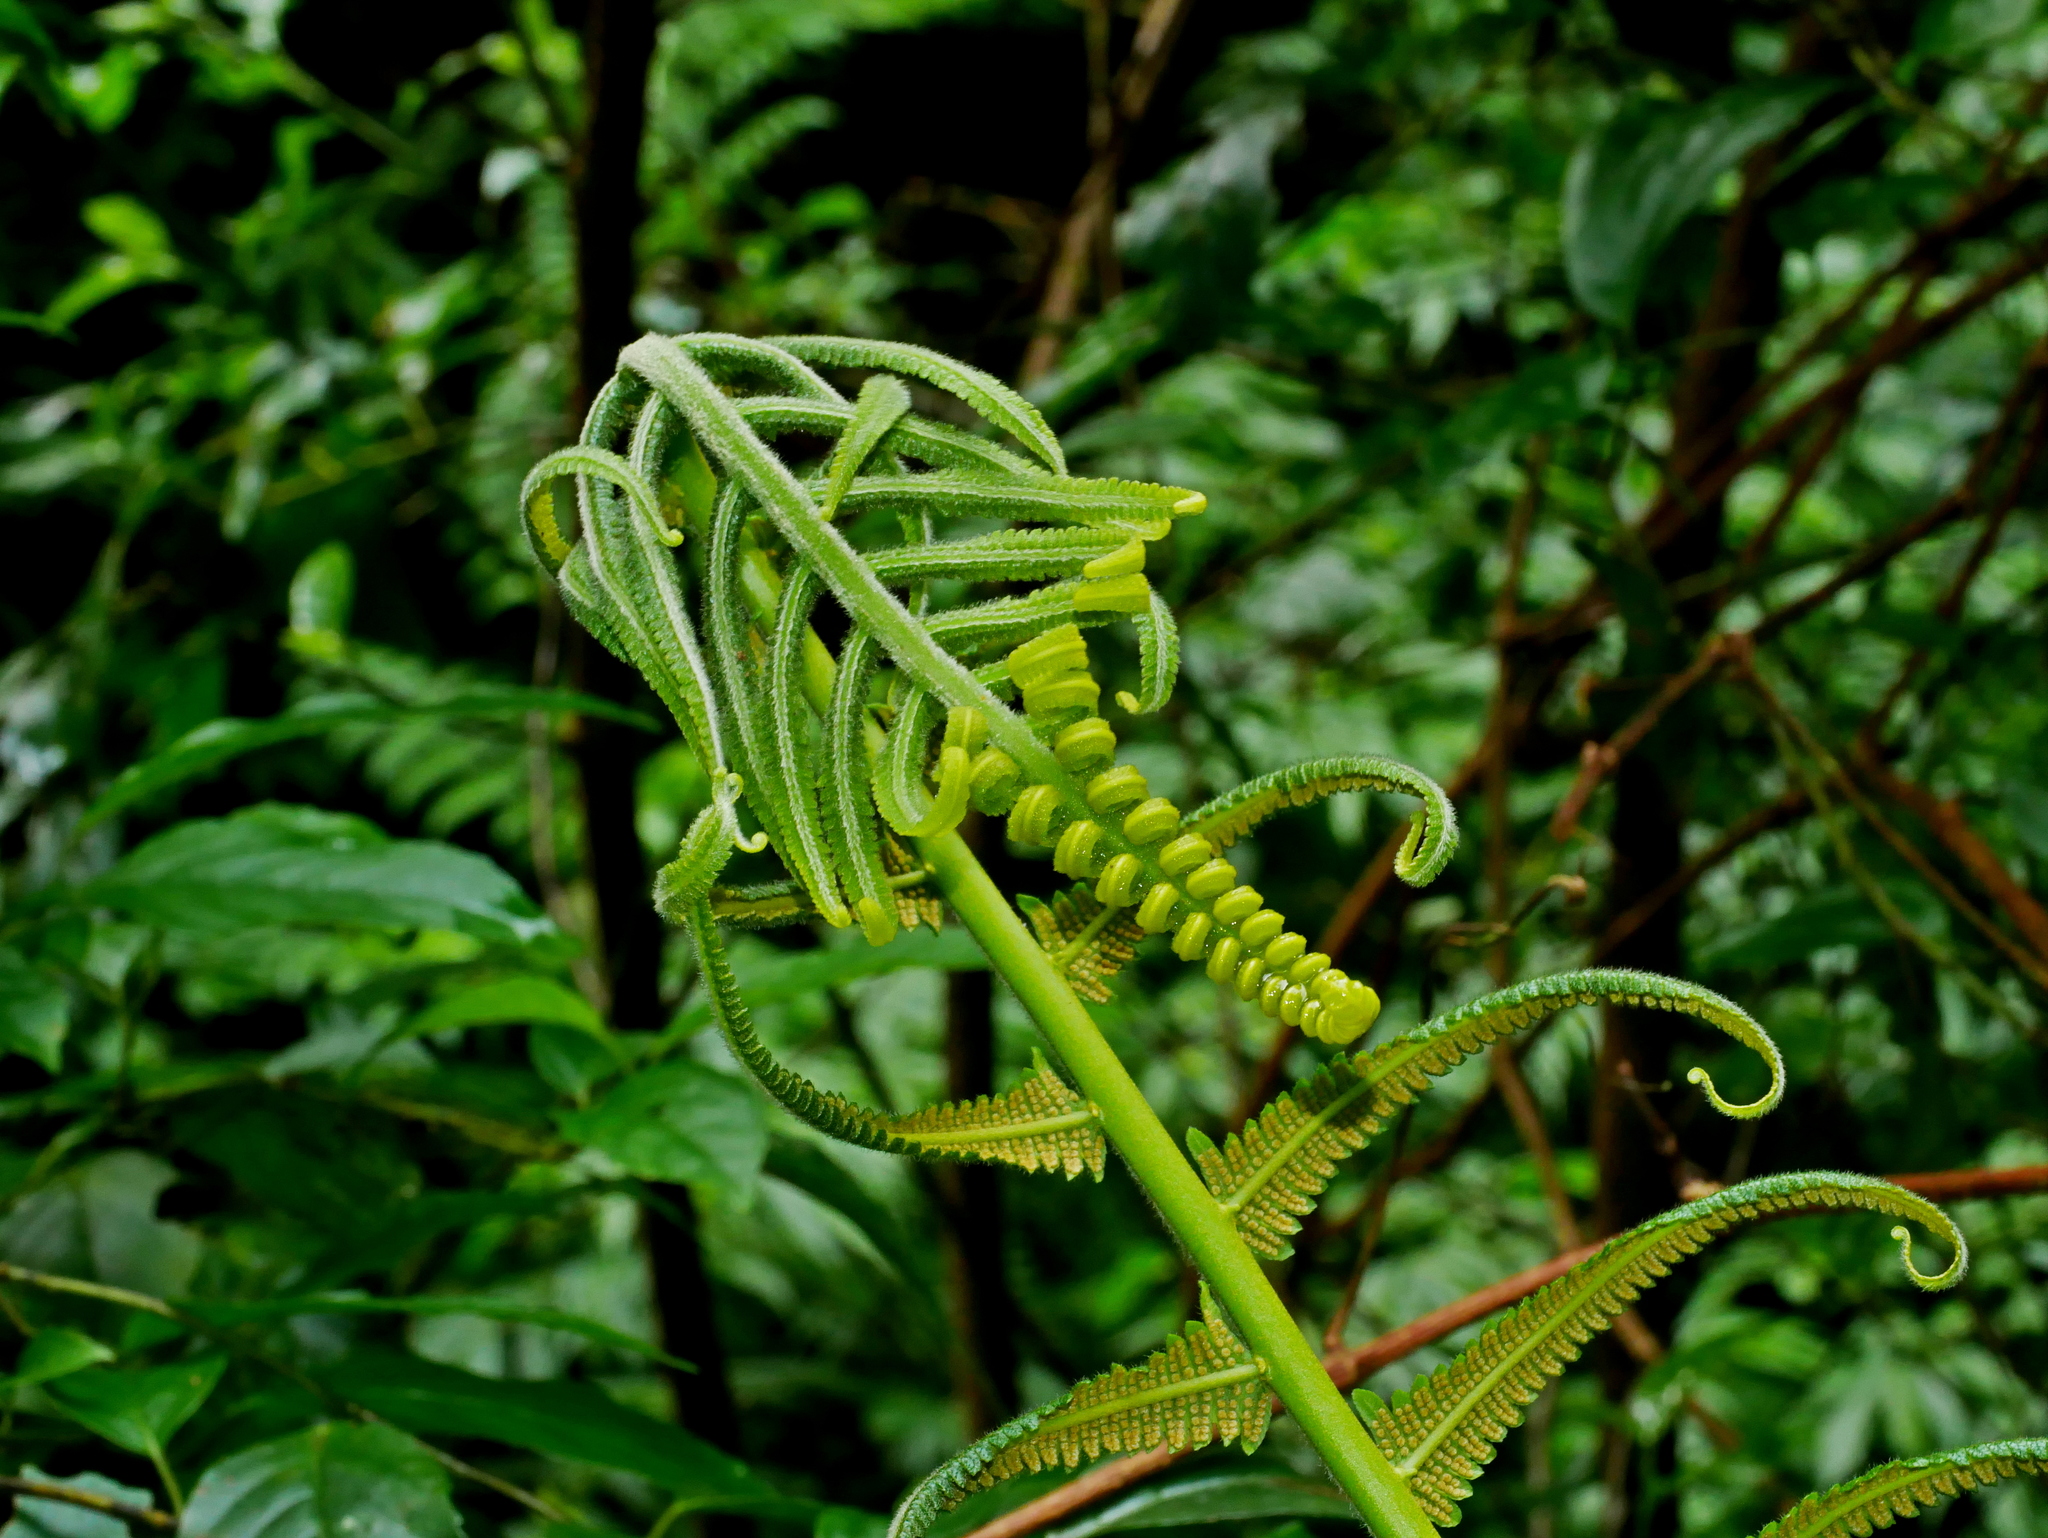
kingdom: Plantae
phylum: Tracheophyta
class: Polypodiopsida
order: Polypodiales
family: Thelypteridaceae
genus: Sphaerostephanos
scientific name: Sphaerostephanos taiwanensis
